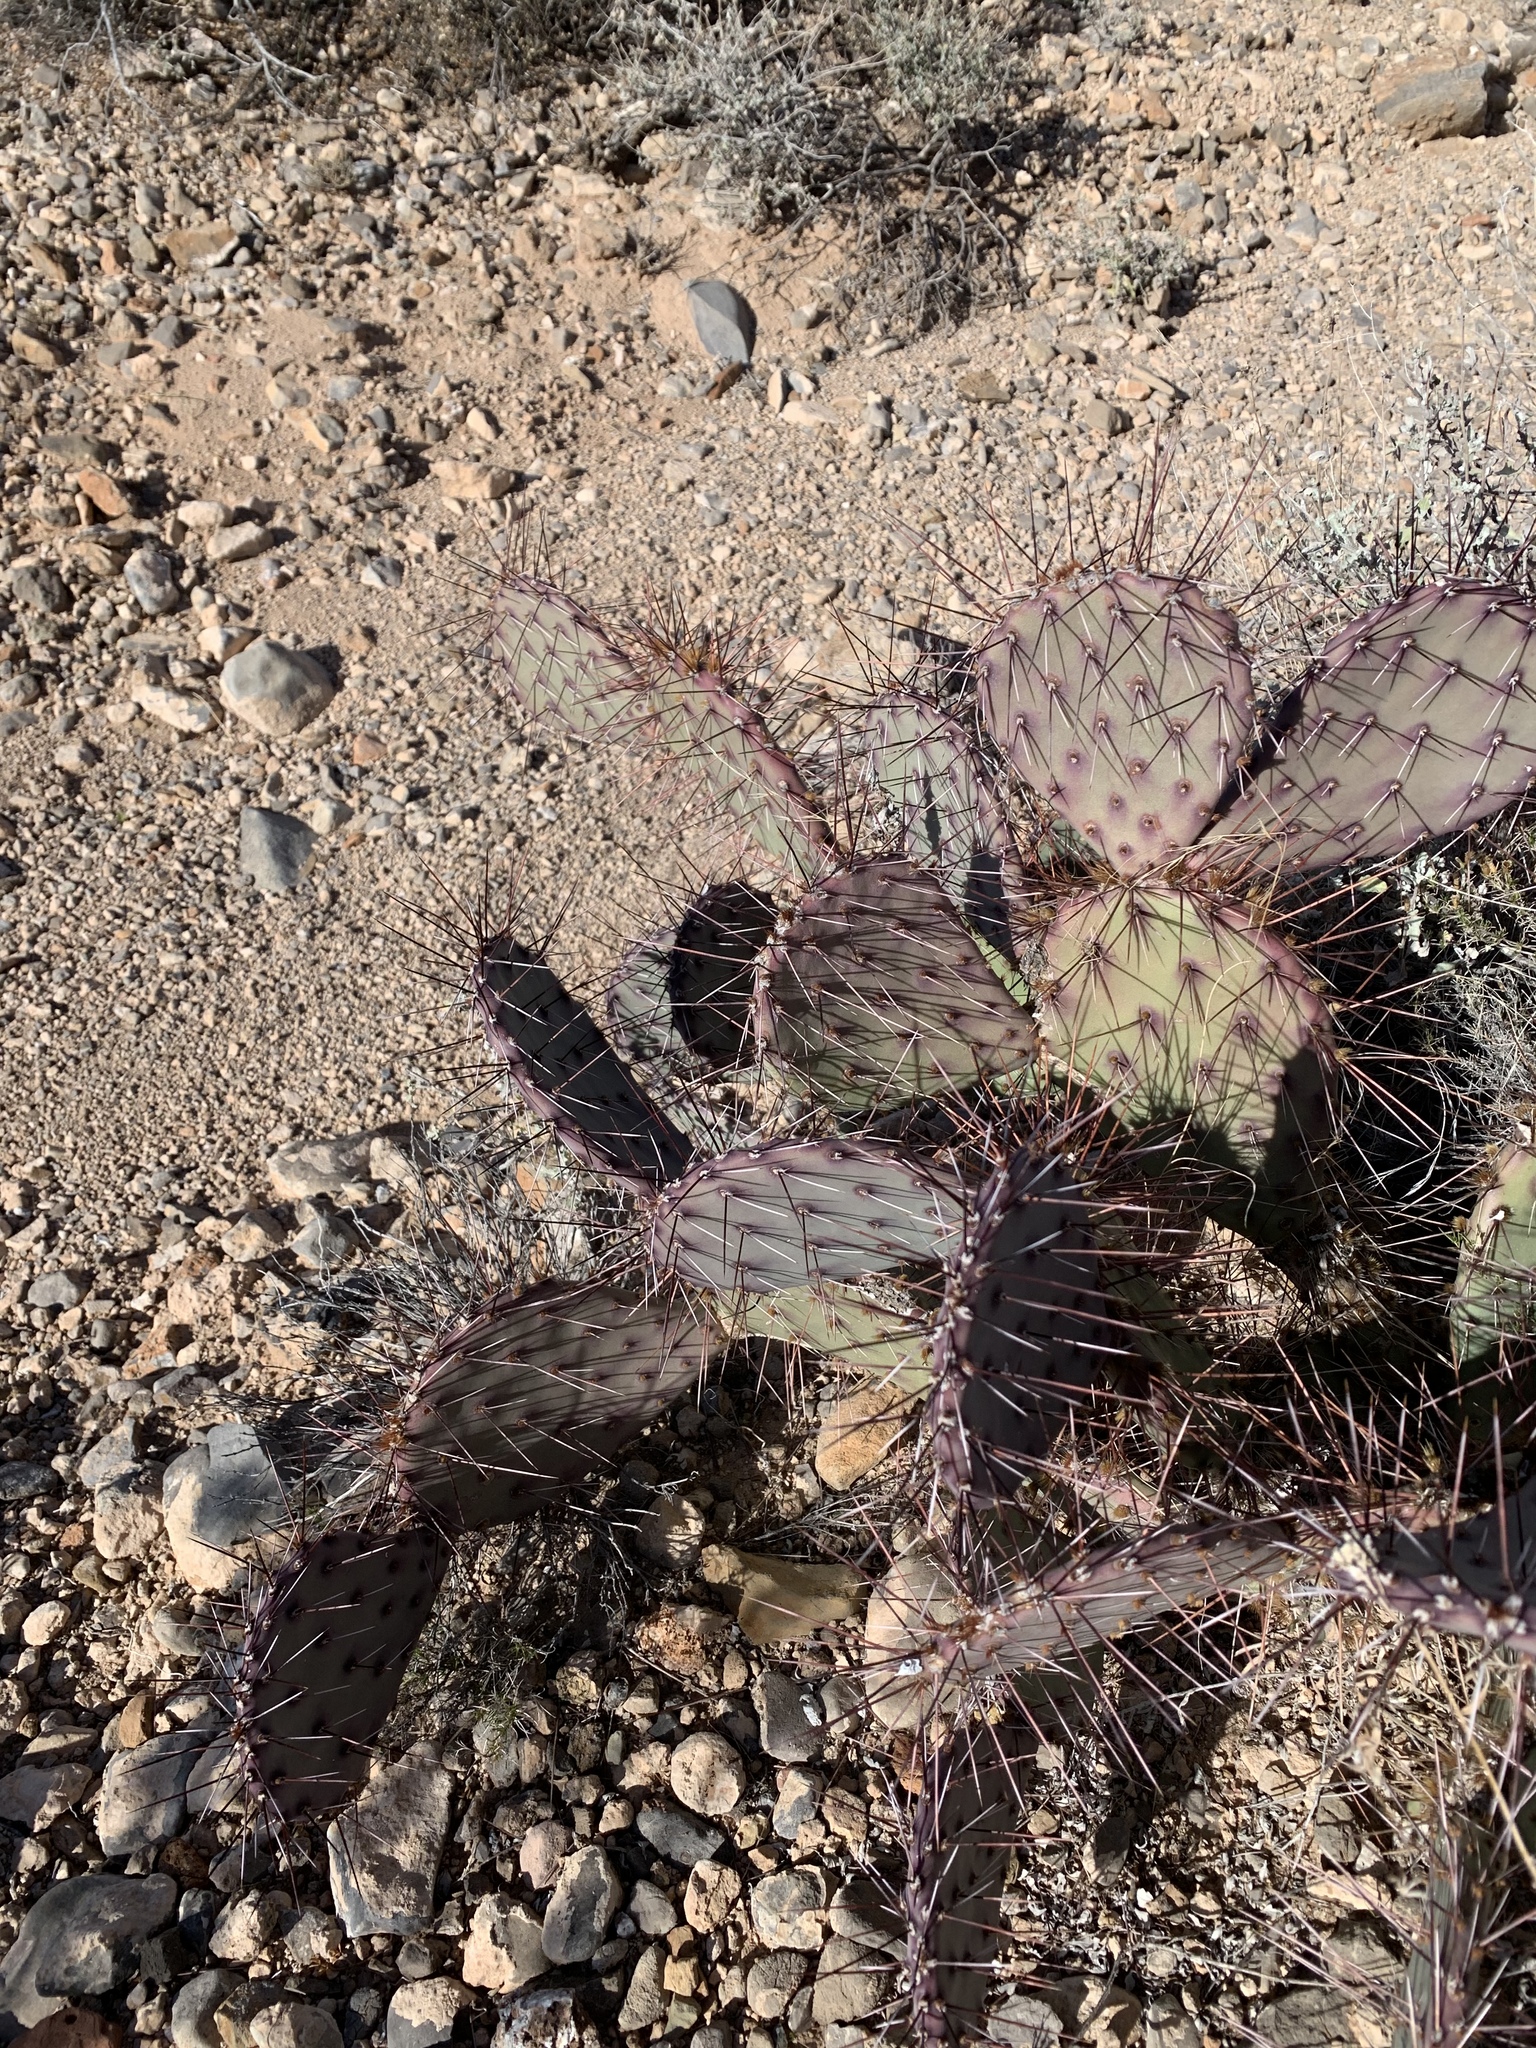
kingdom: Plantae
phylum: Tracheophyta
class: Magnoliopsida
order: Caryophyllales
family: Cactaceae
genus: Opuntia
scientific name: Opuntia macrocentra
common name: Purple prickly-pear
